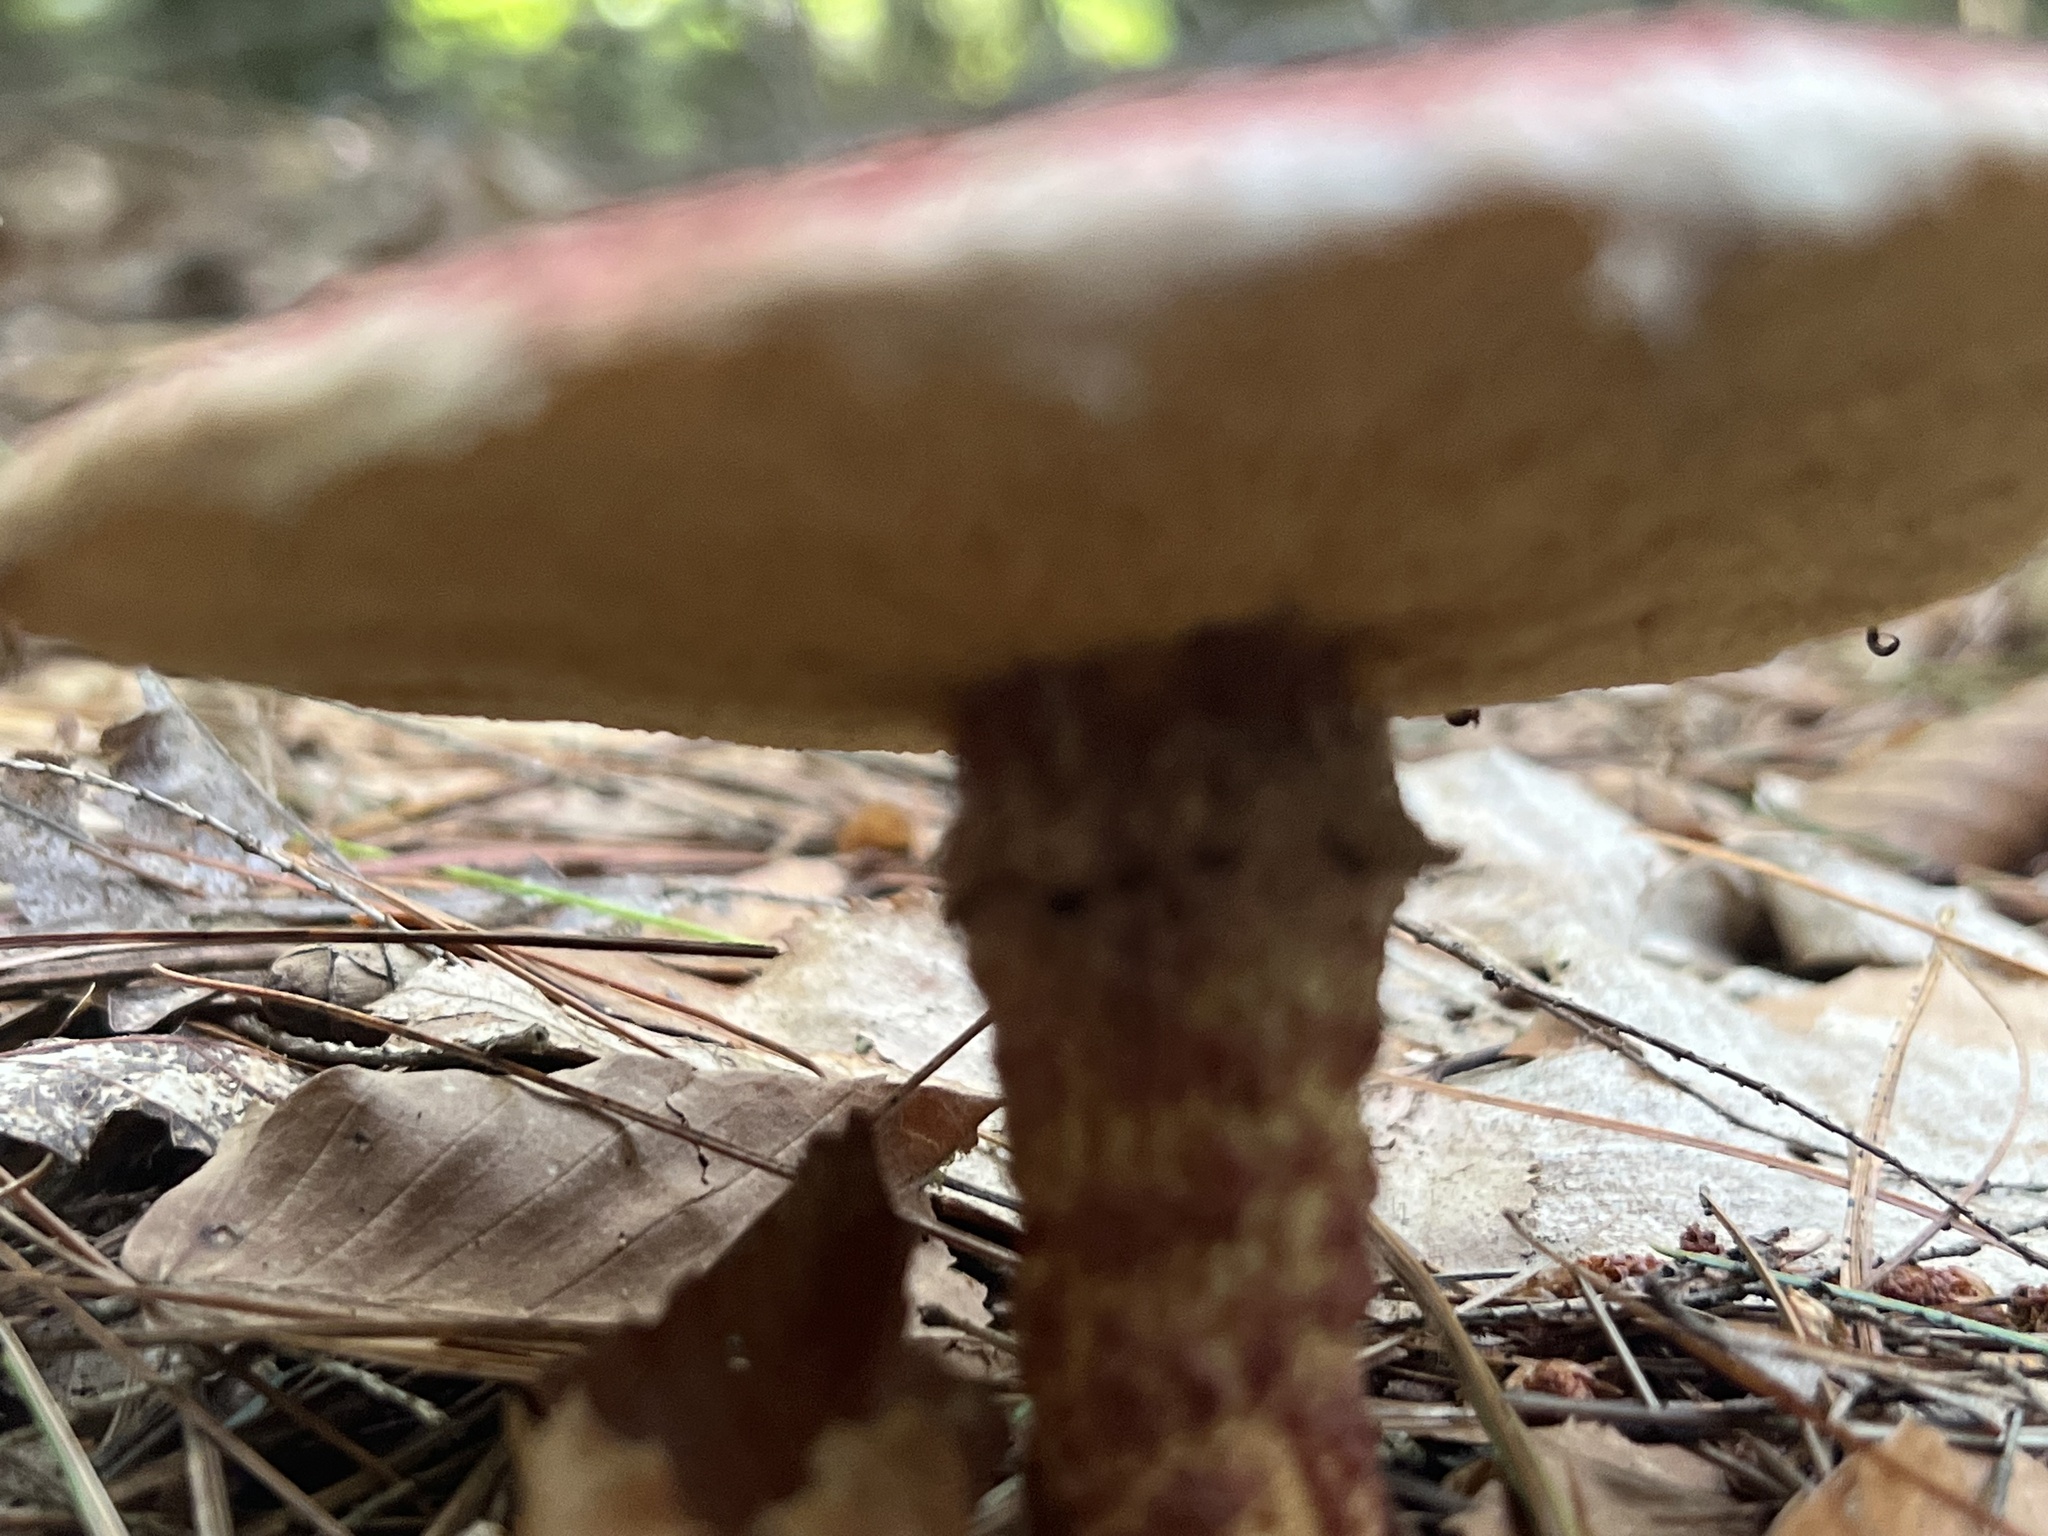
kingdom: Fungi
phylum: Basidiomycota
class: Agaricomycetes
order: Boletales
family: Suillaceae
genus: Suillus
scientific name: Suillus spraguei
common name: Painted suillus
